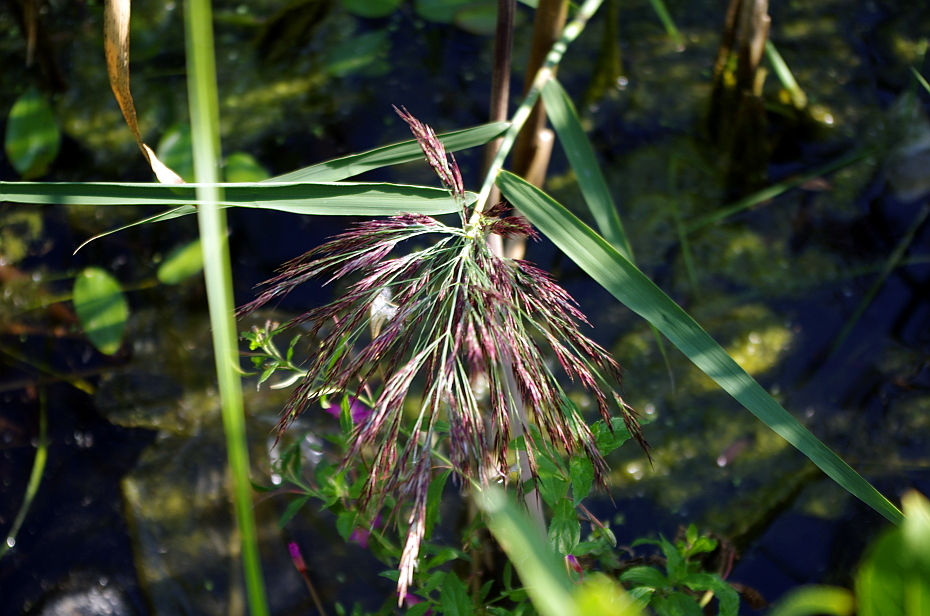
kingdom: Plantae
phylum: Tracheophyta
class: Liliopsida
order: Poales
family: Poaceae
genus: Phragmites
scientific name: Phragmites australis
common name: Common reed
